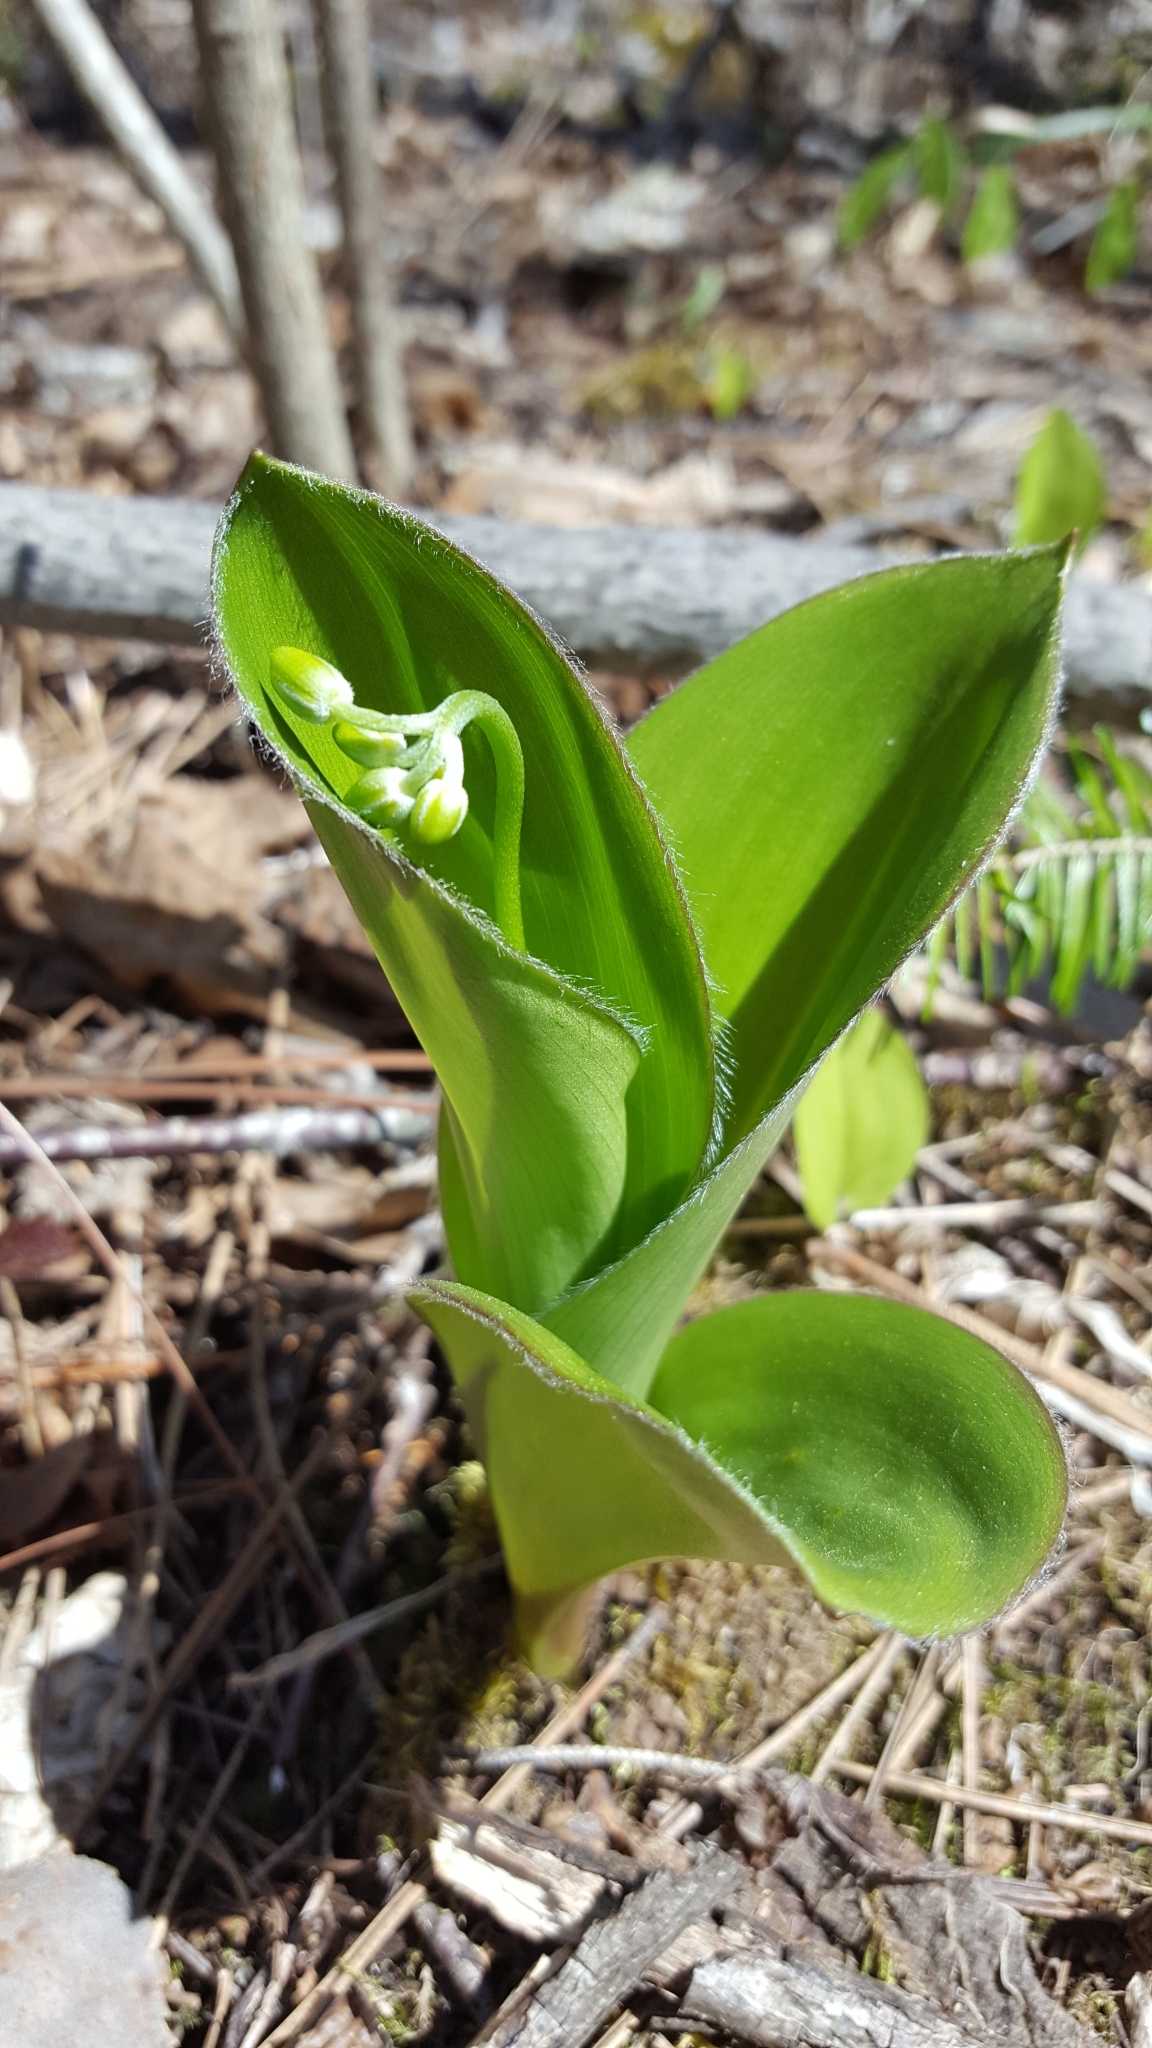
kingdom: Plantae
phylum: Tracheophyta
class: Liliopsida
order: Liliales
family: Liliaceae
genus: Clintonia
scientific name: Clintonia borealis
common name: Yellow clintonia
